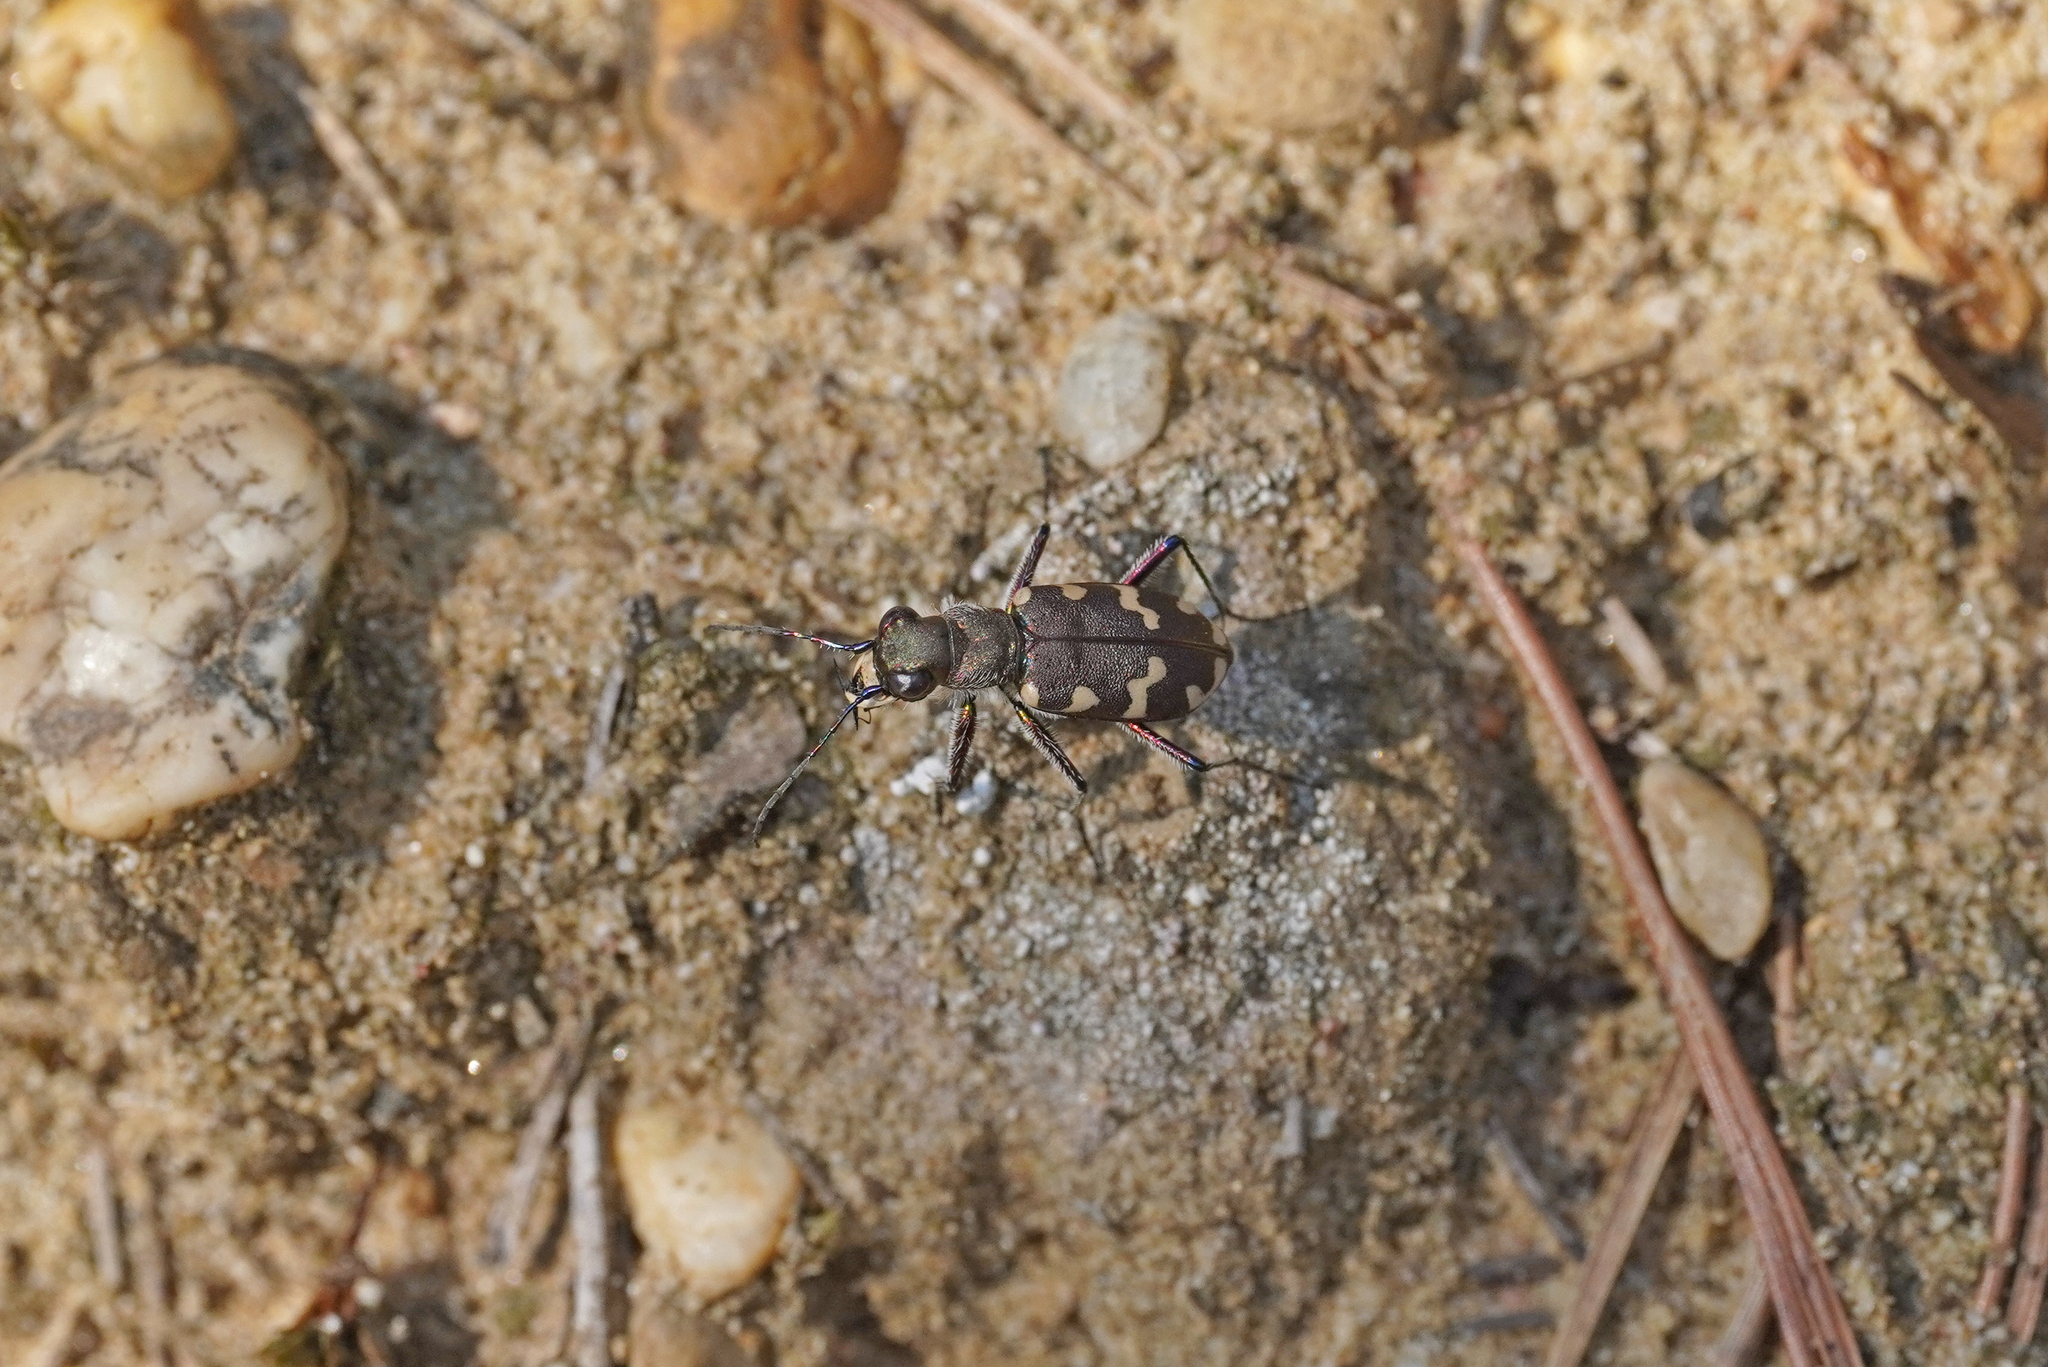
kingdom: Animalia
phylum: Arthropoda
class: Insecta
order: Coleoptera
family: Carabidae
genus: Cicindela
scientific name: Cicindela hybrida
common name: Northern dune tiger beetle
